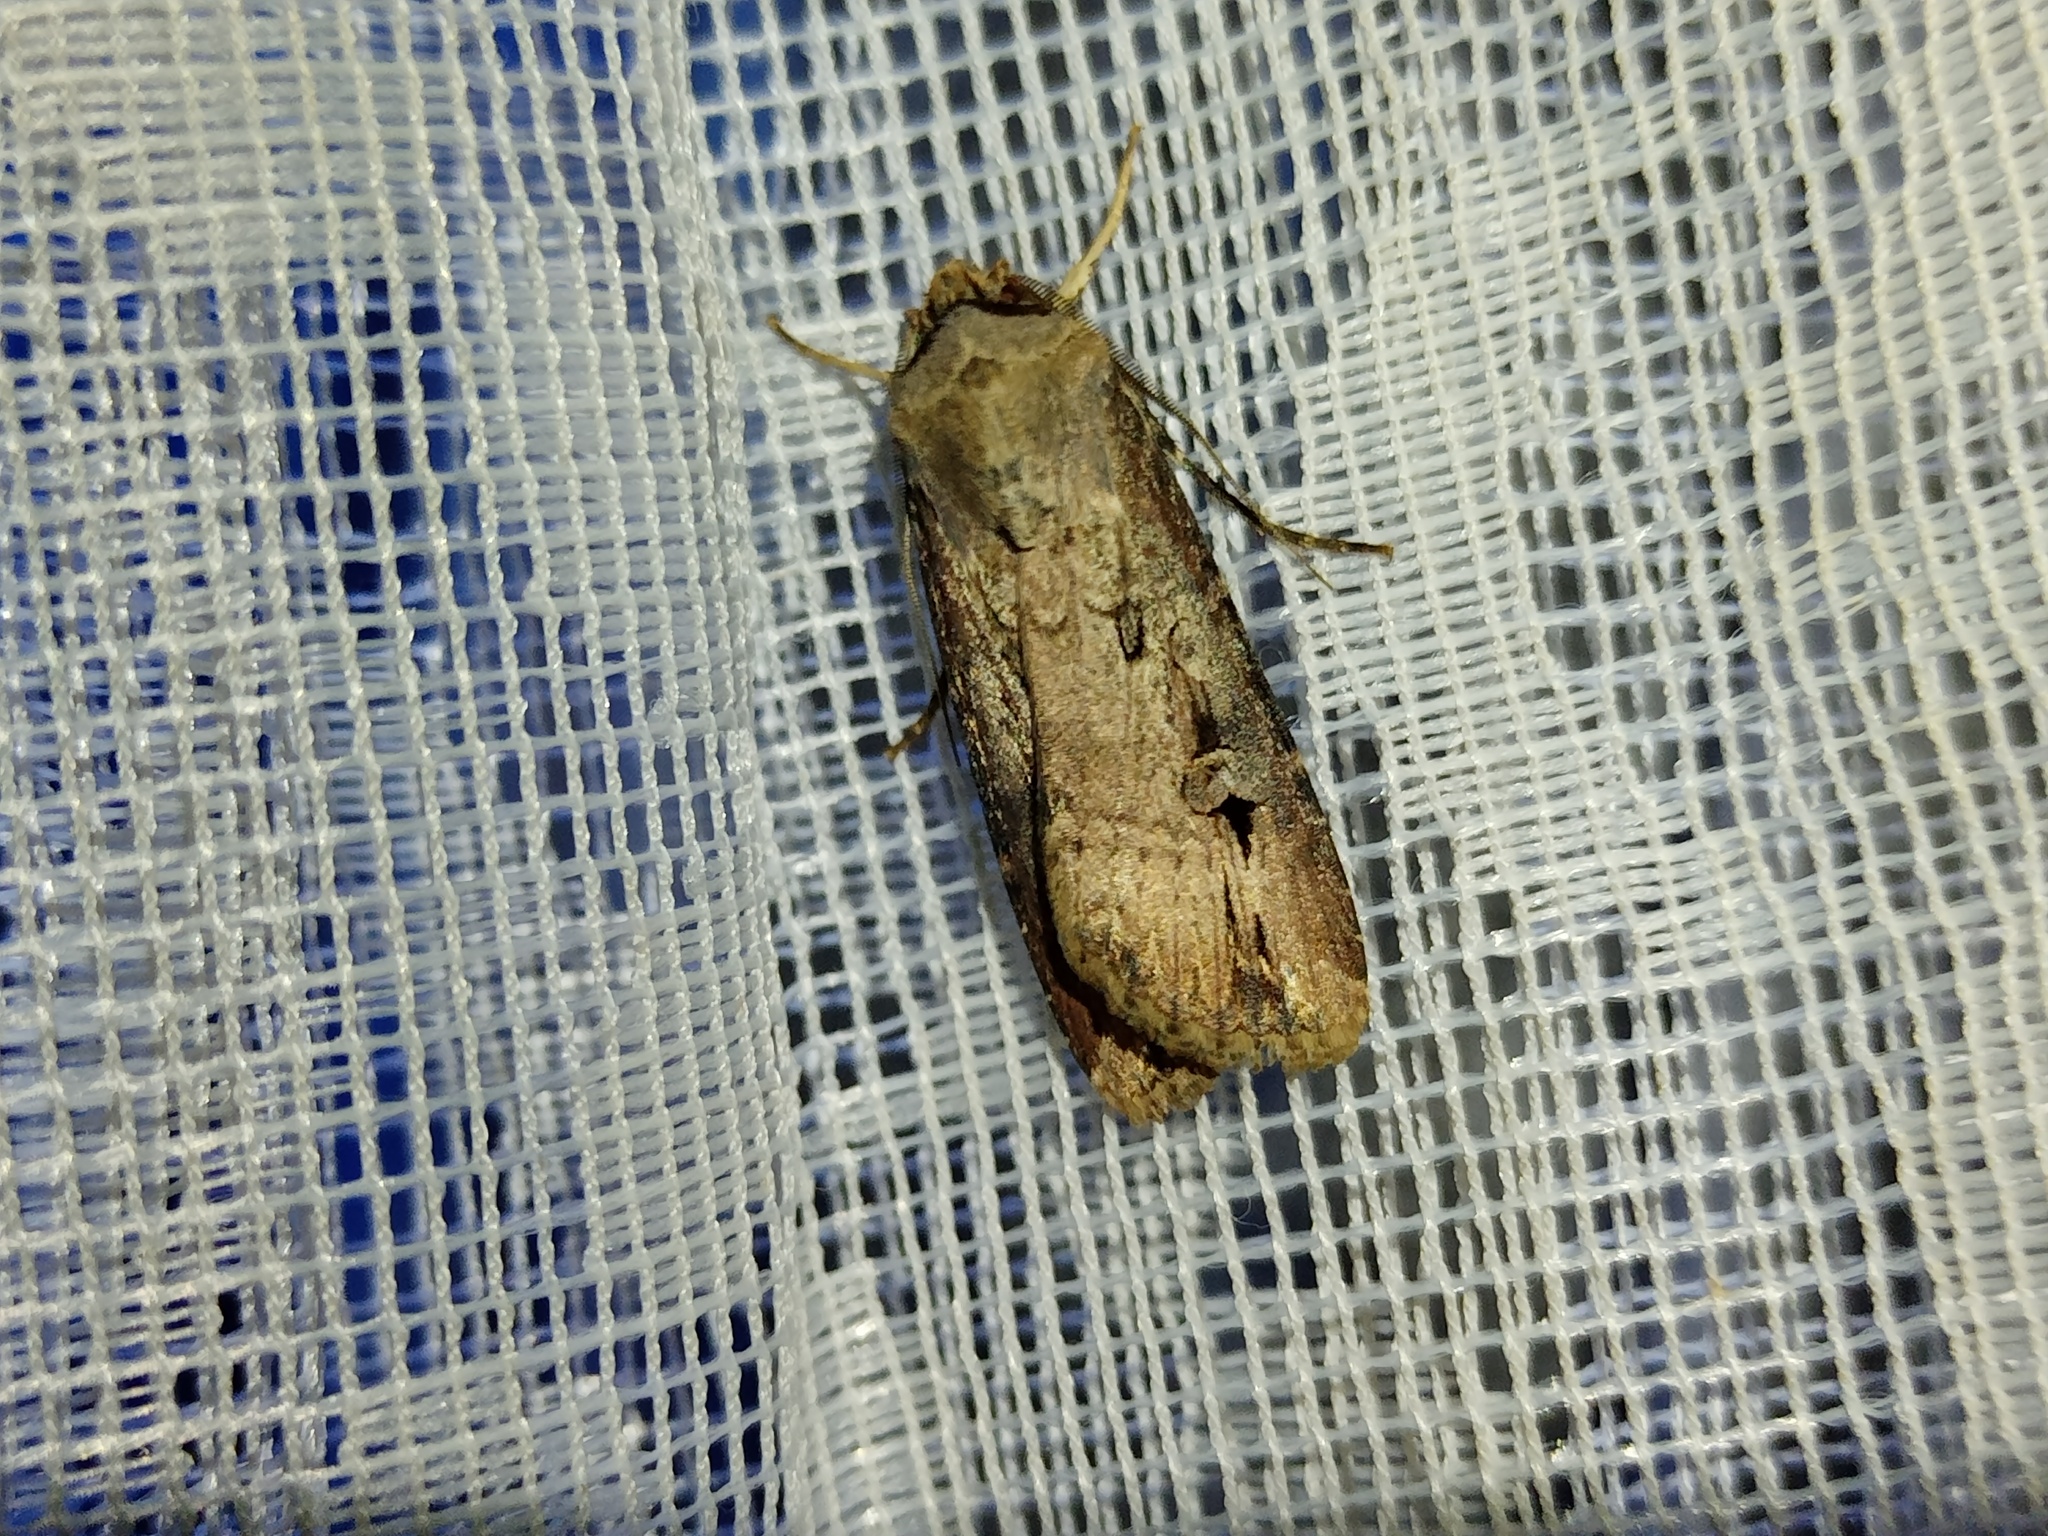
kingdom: Animalia
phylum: Arthropoda
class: Insecta
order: Lepidoptera
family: Noctuidae
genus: Agrotis
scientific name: Agrotis ipsilon
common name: Dark sword-grass
